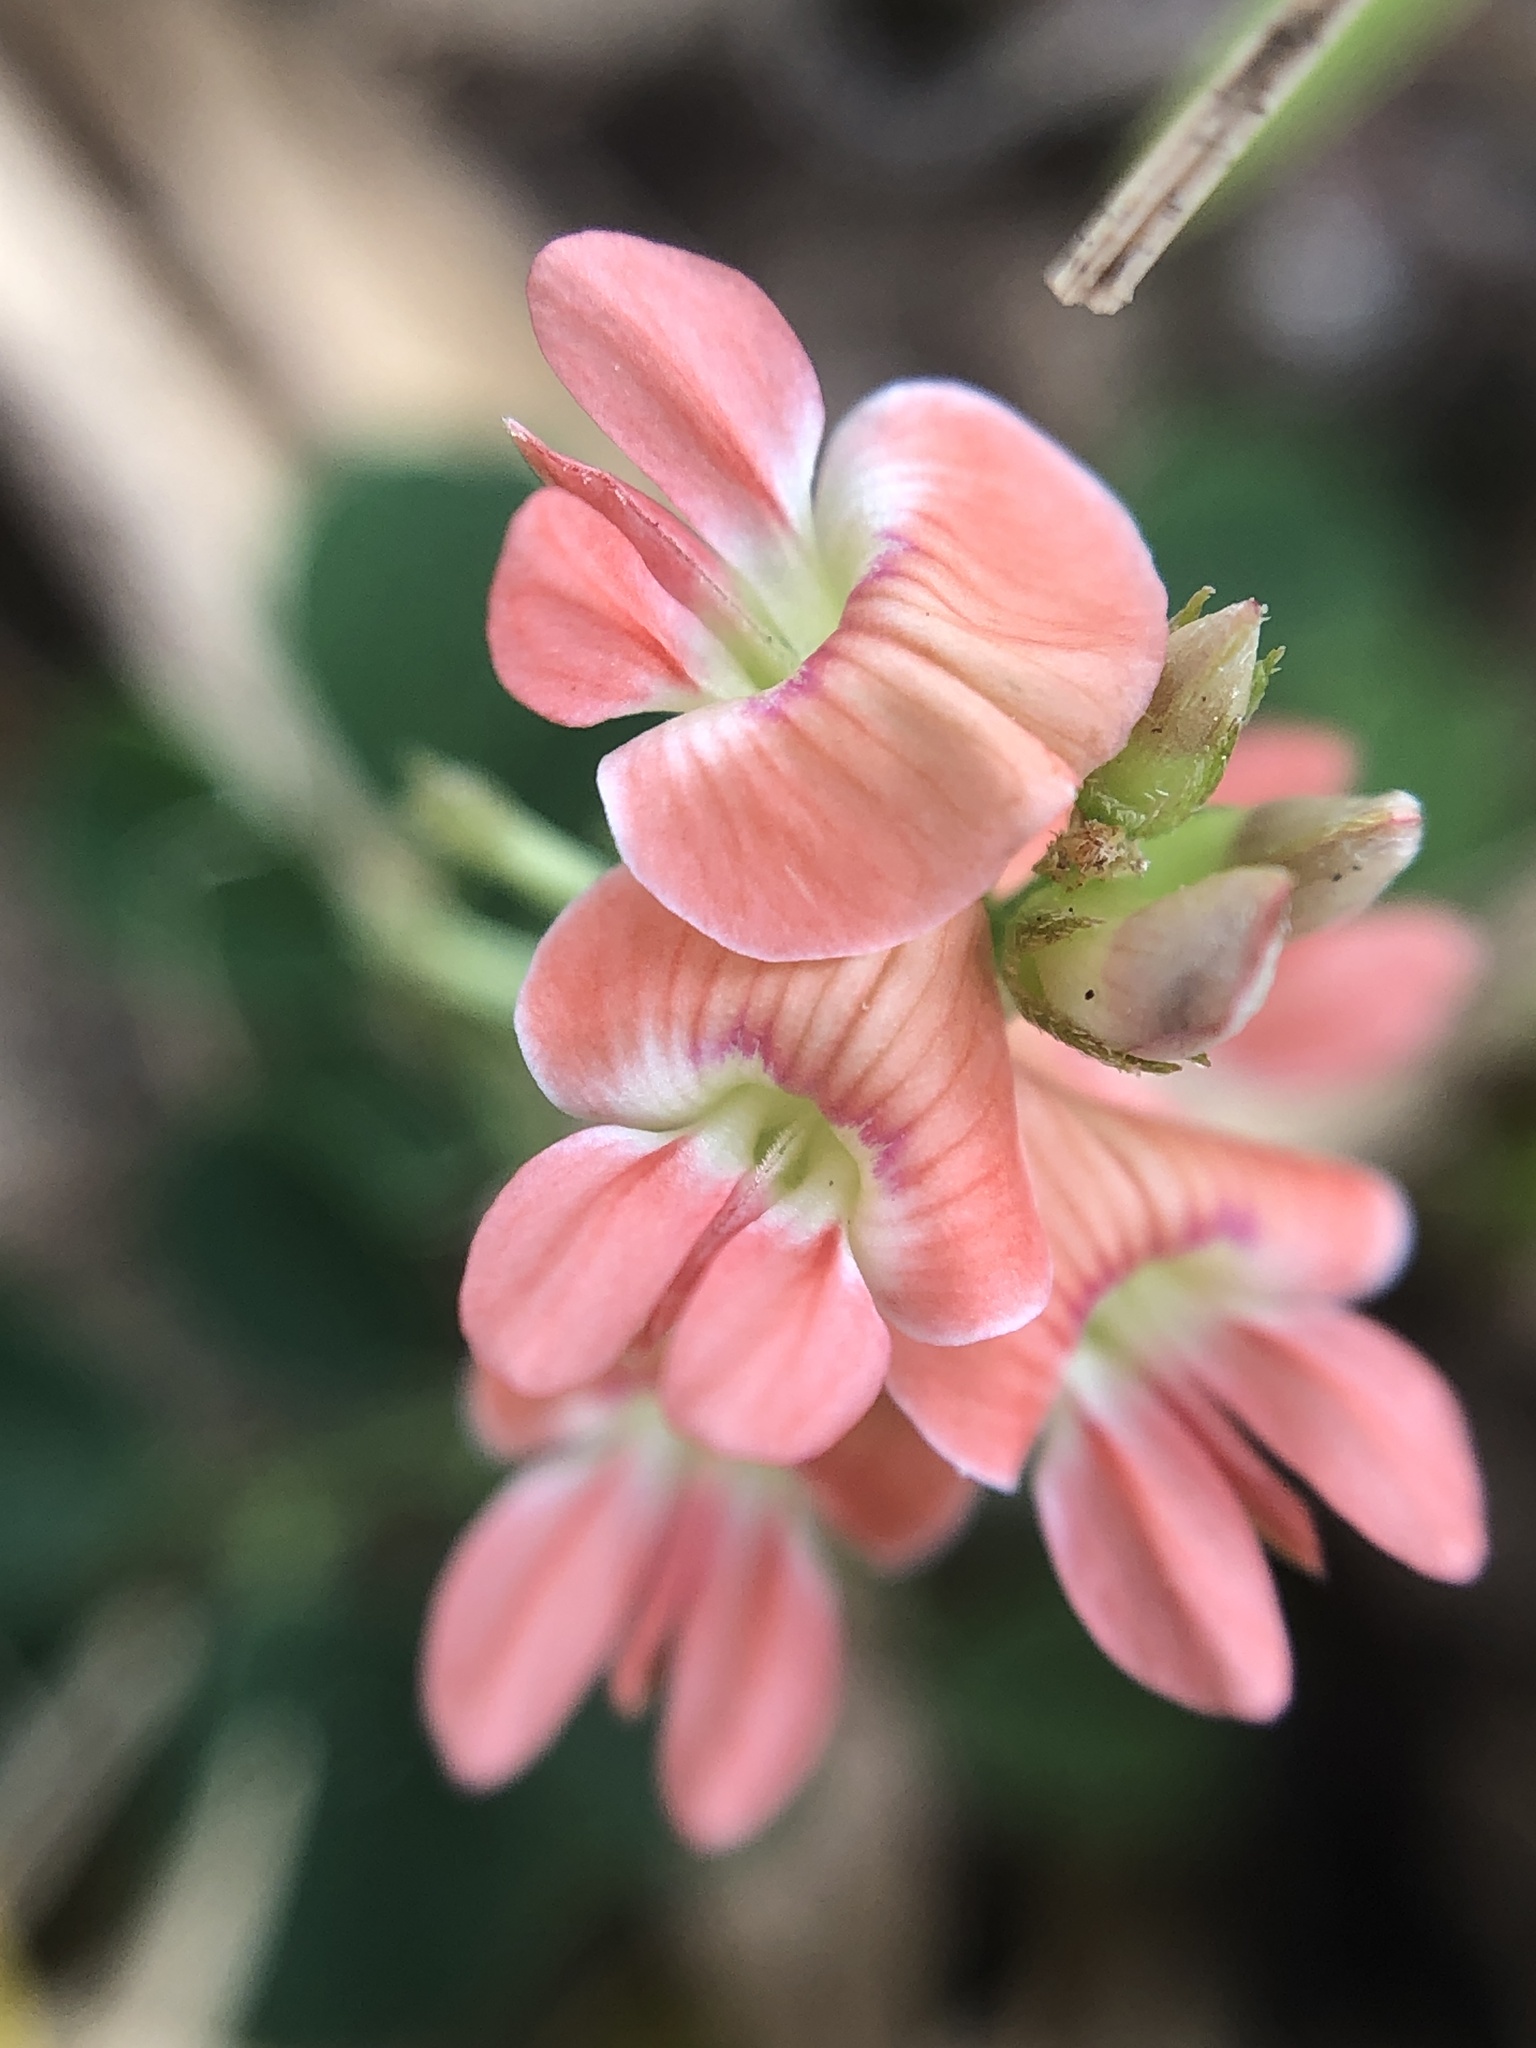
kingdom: Plantae
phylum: Tracheophyta
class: Magnoliopsida
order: Fabales
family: Fabaceae
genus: Indigofera
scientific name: Indigofera spicata
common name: Creeping indigo
